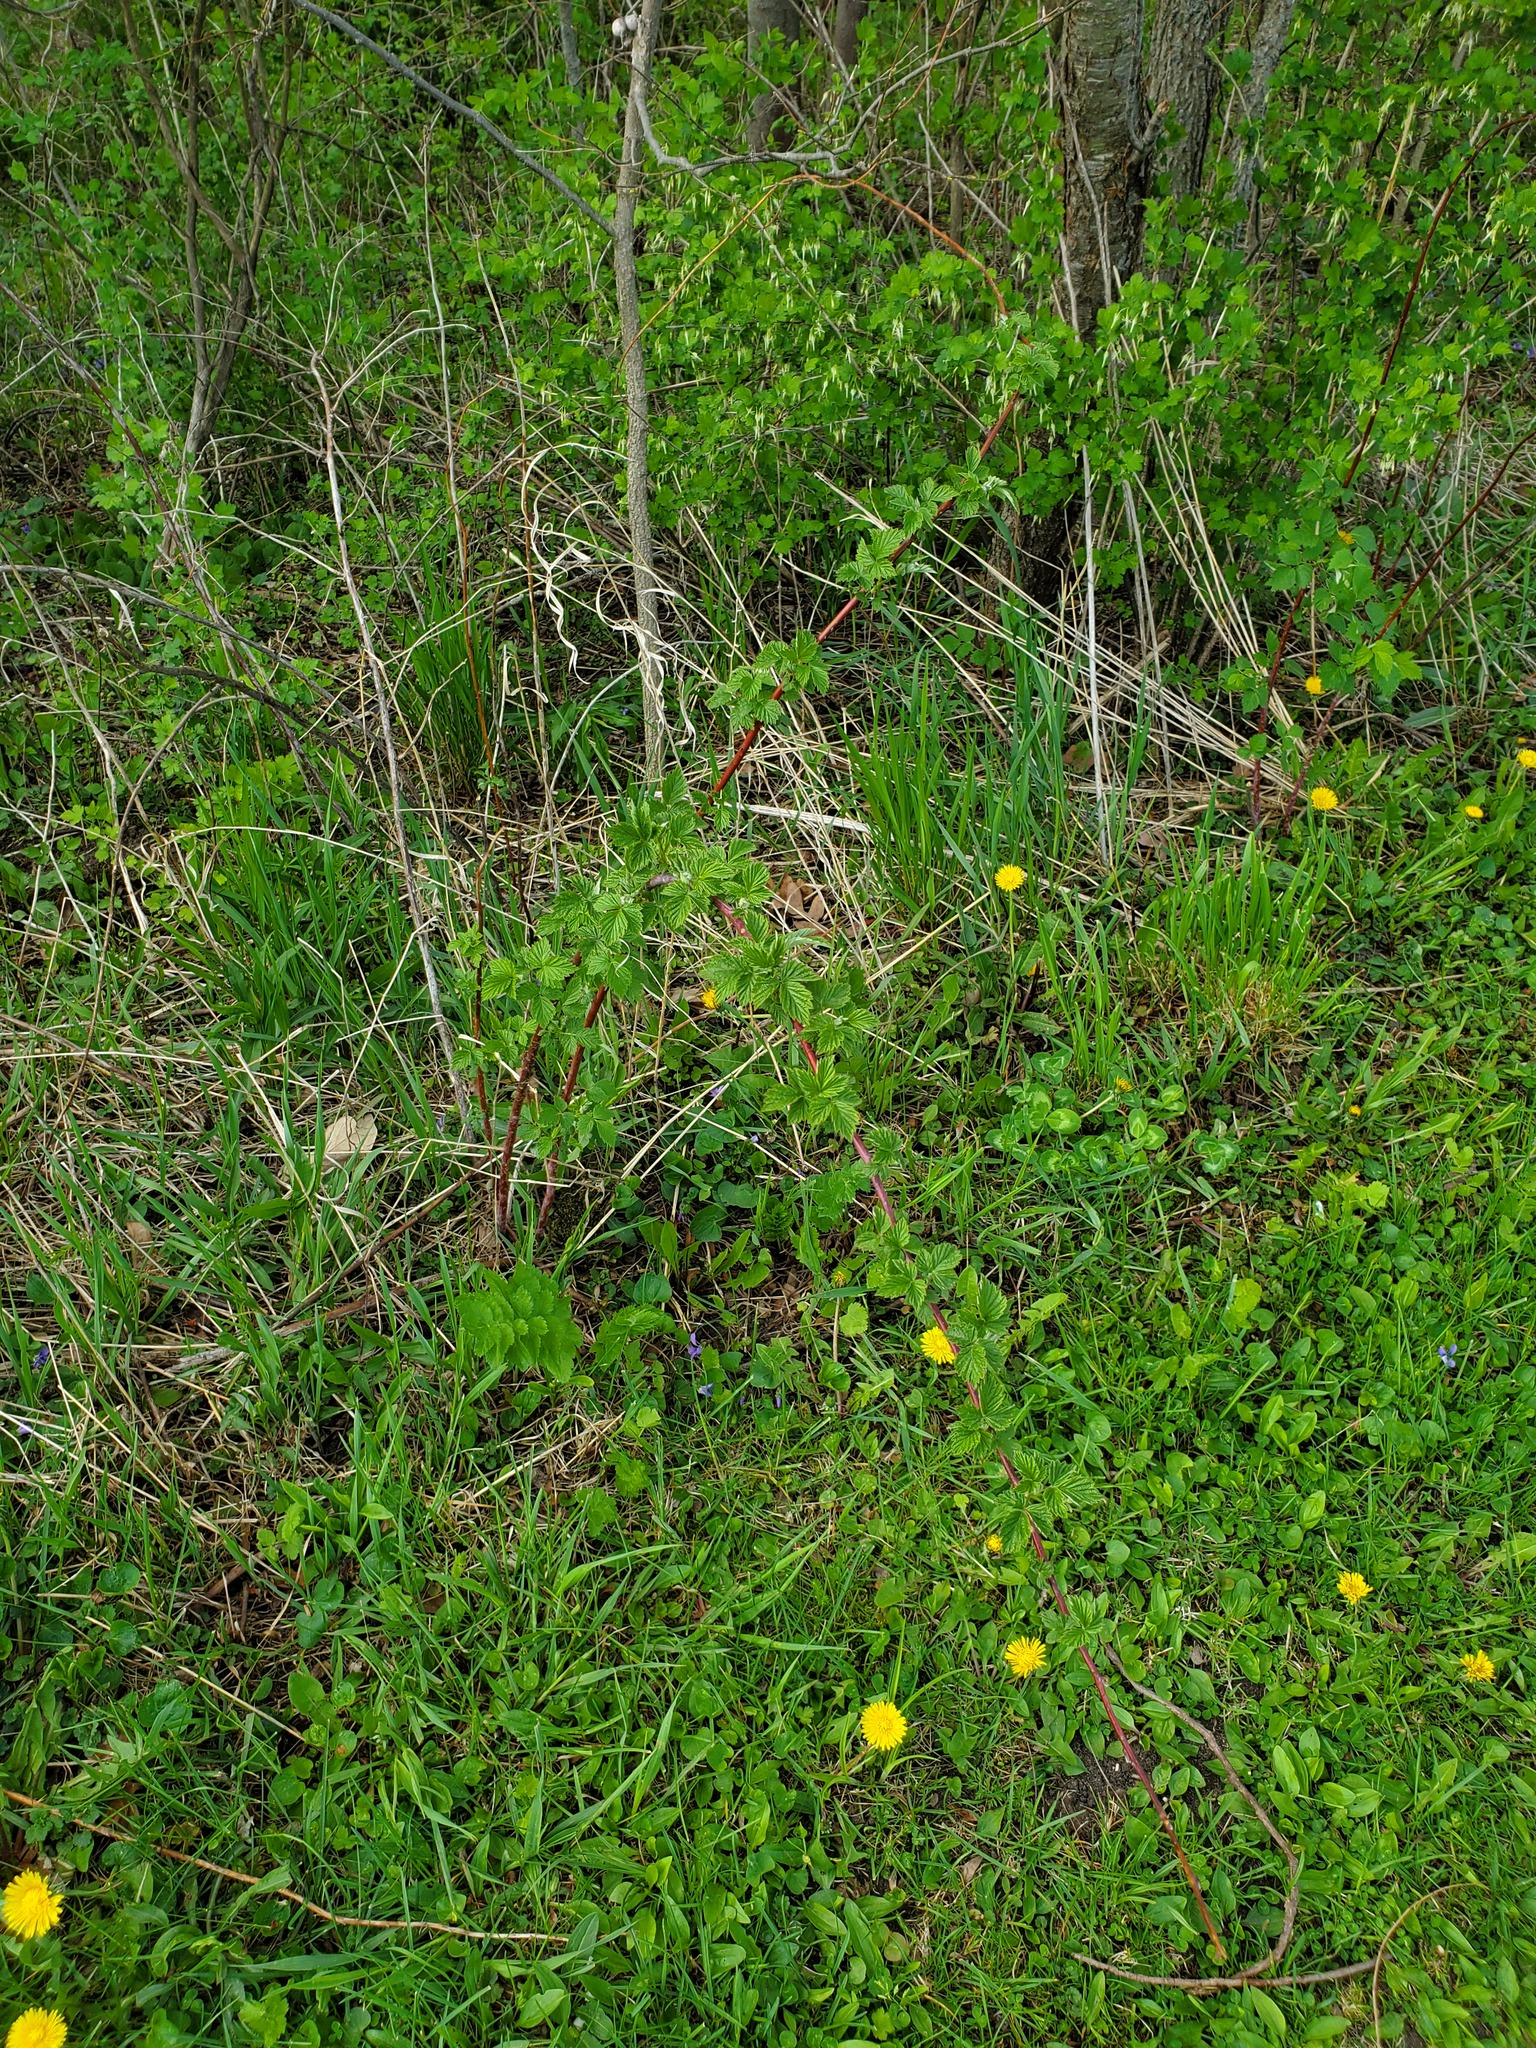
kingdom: Plantae
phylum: Tracheophyta
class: Magnoliopsida
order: Rosales
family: Rosaceae
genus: Rubus
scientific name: Rubus occidentalis
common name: Black raspberry
